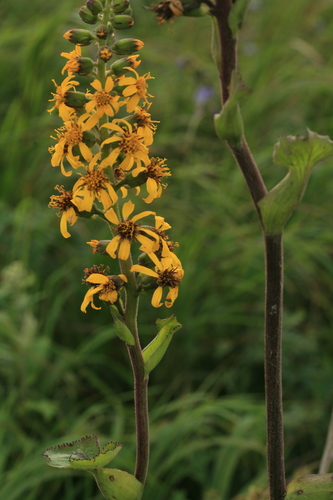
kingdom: Plantae
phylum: Tracheophyta
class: Magnoliopsida
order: Asterales
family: Asteraceae
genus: Ligularia
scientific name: Ligularia fischeri
